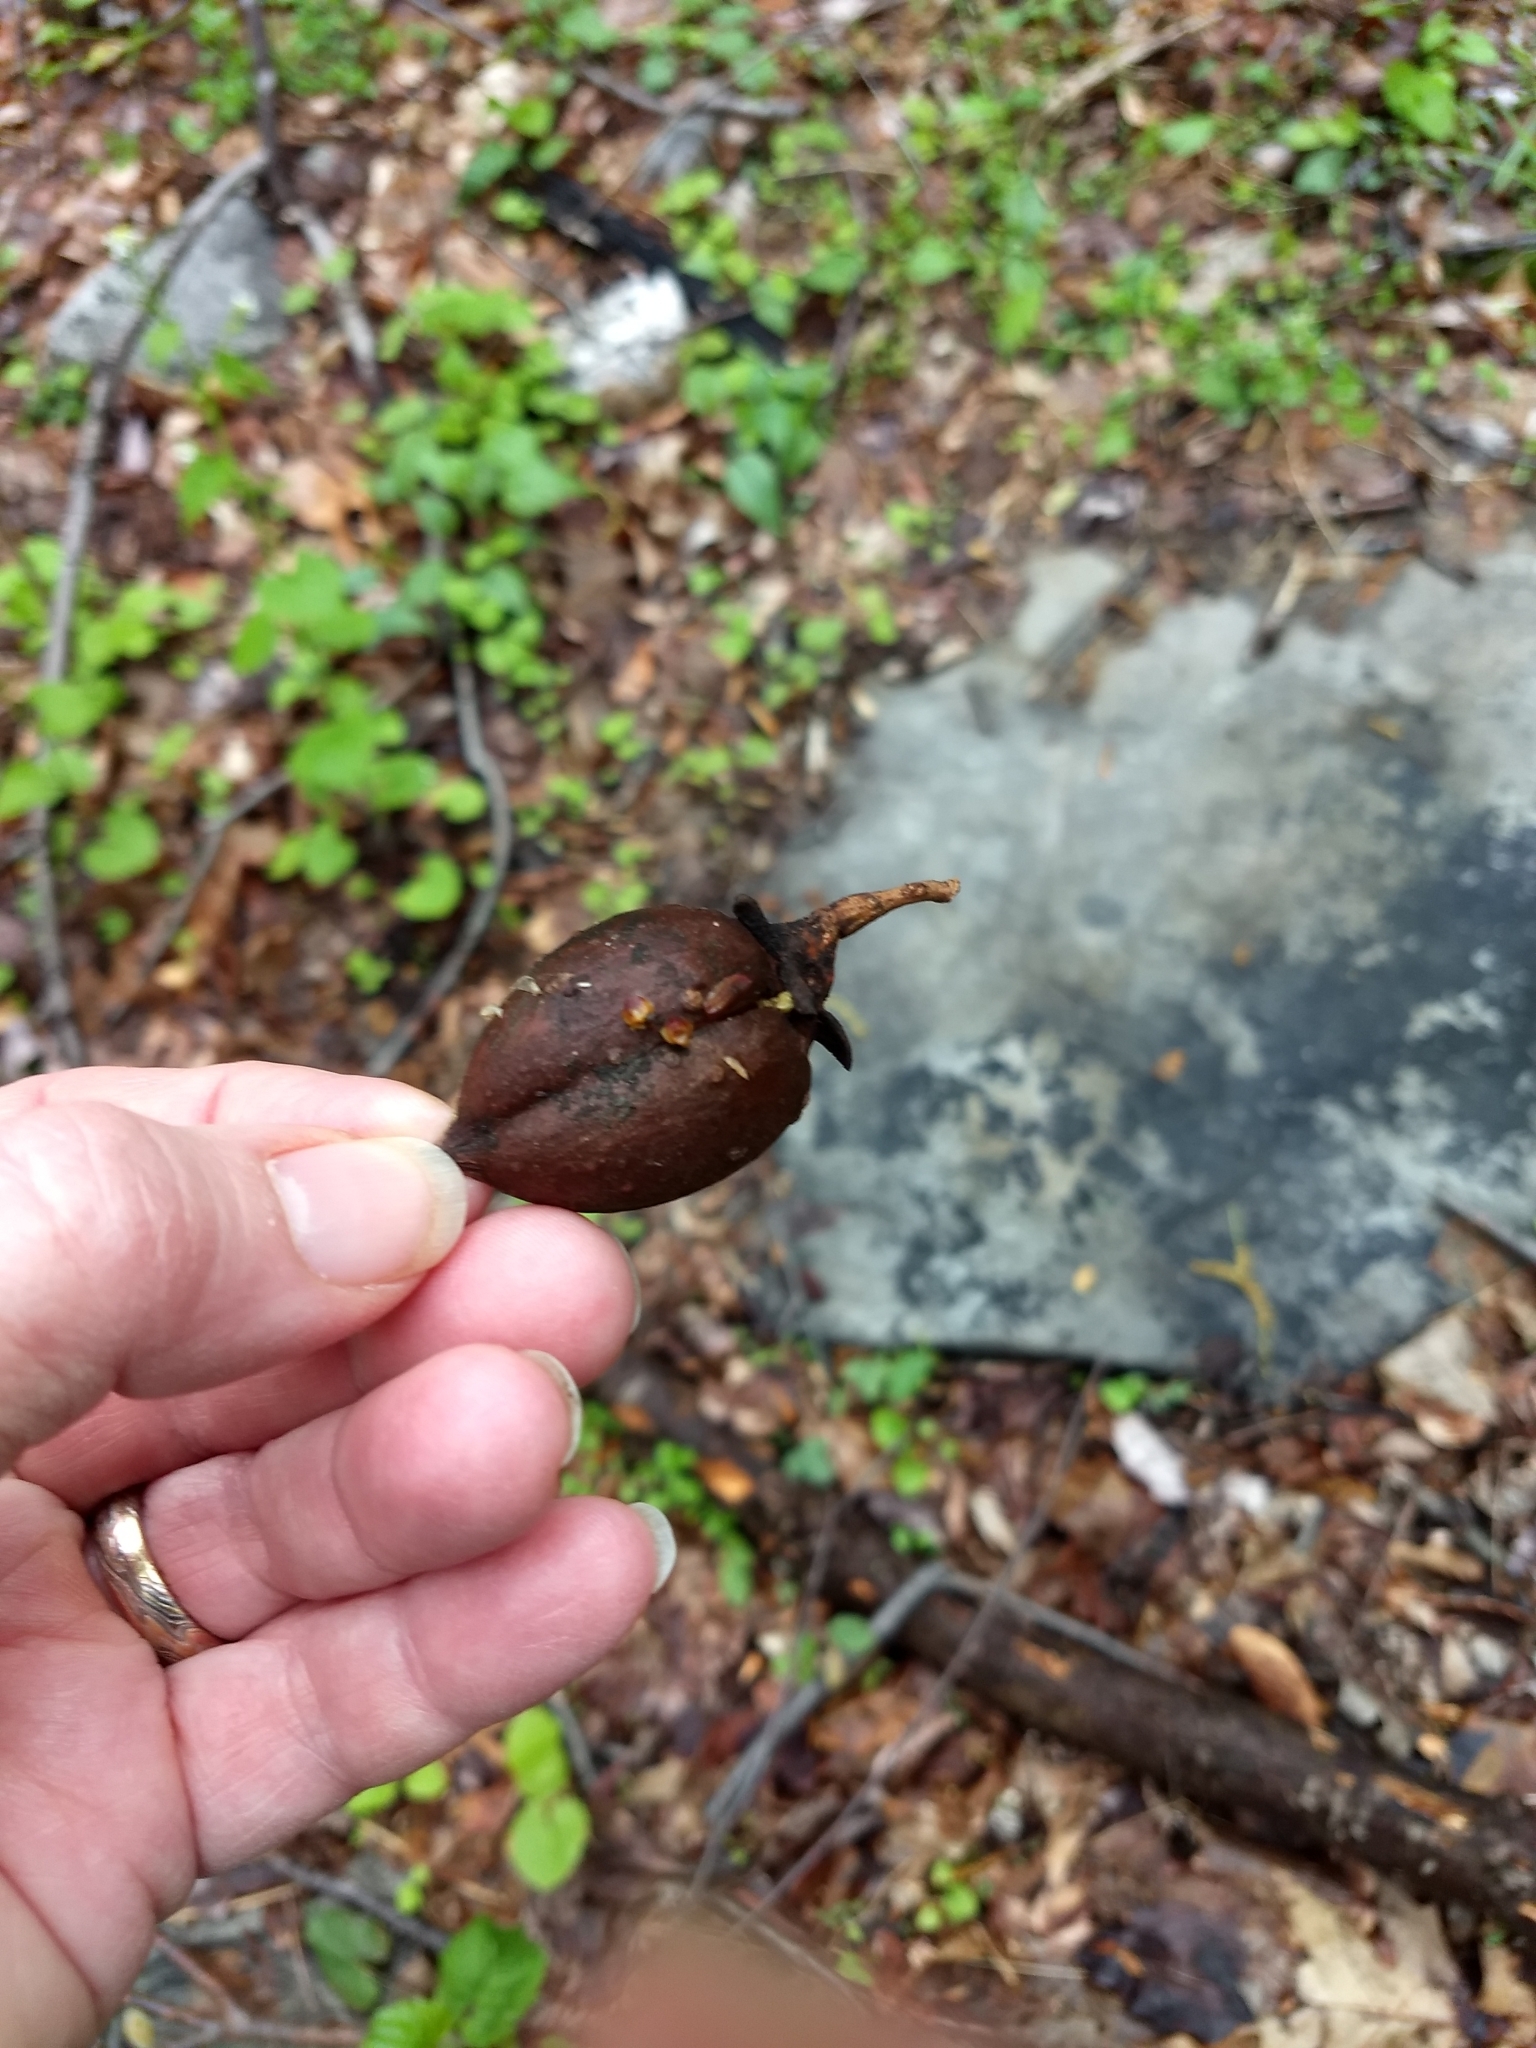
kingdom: Plantae
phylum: Tracheophyta
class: Magnoliopsida
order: Lamiales
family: Paulowniaceae
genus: Paulownia
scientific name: Paulownia tomentosa
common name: Foxglove-tree
